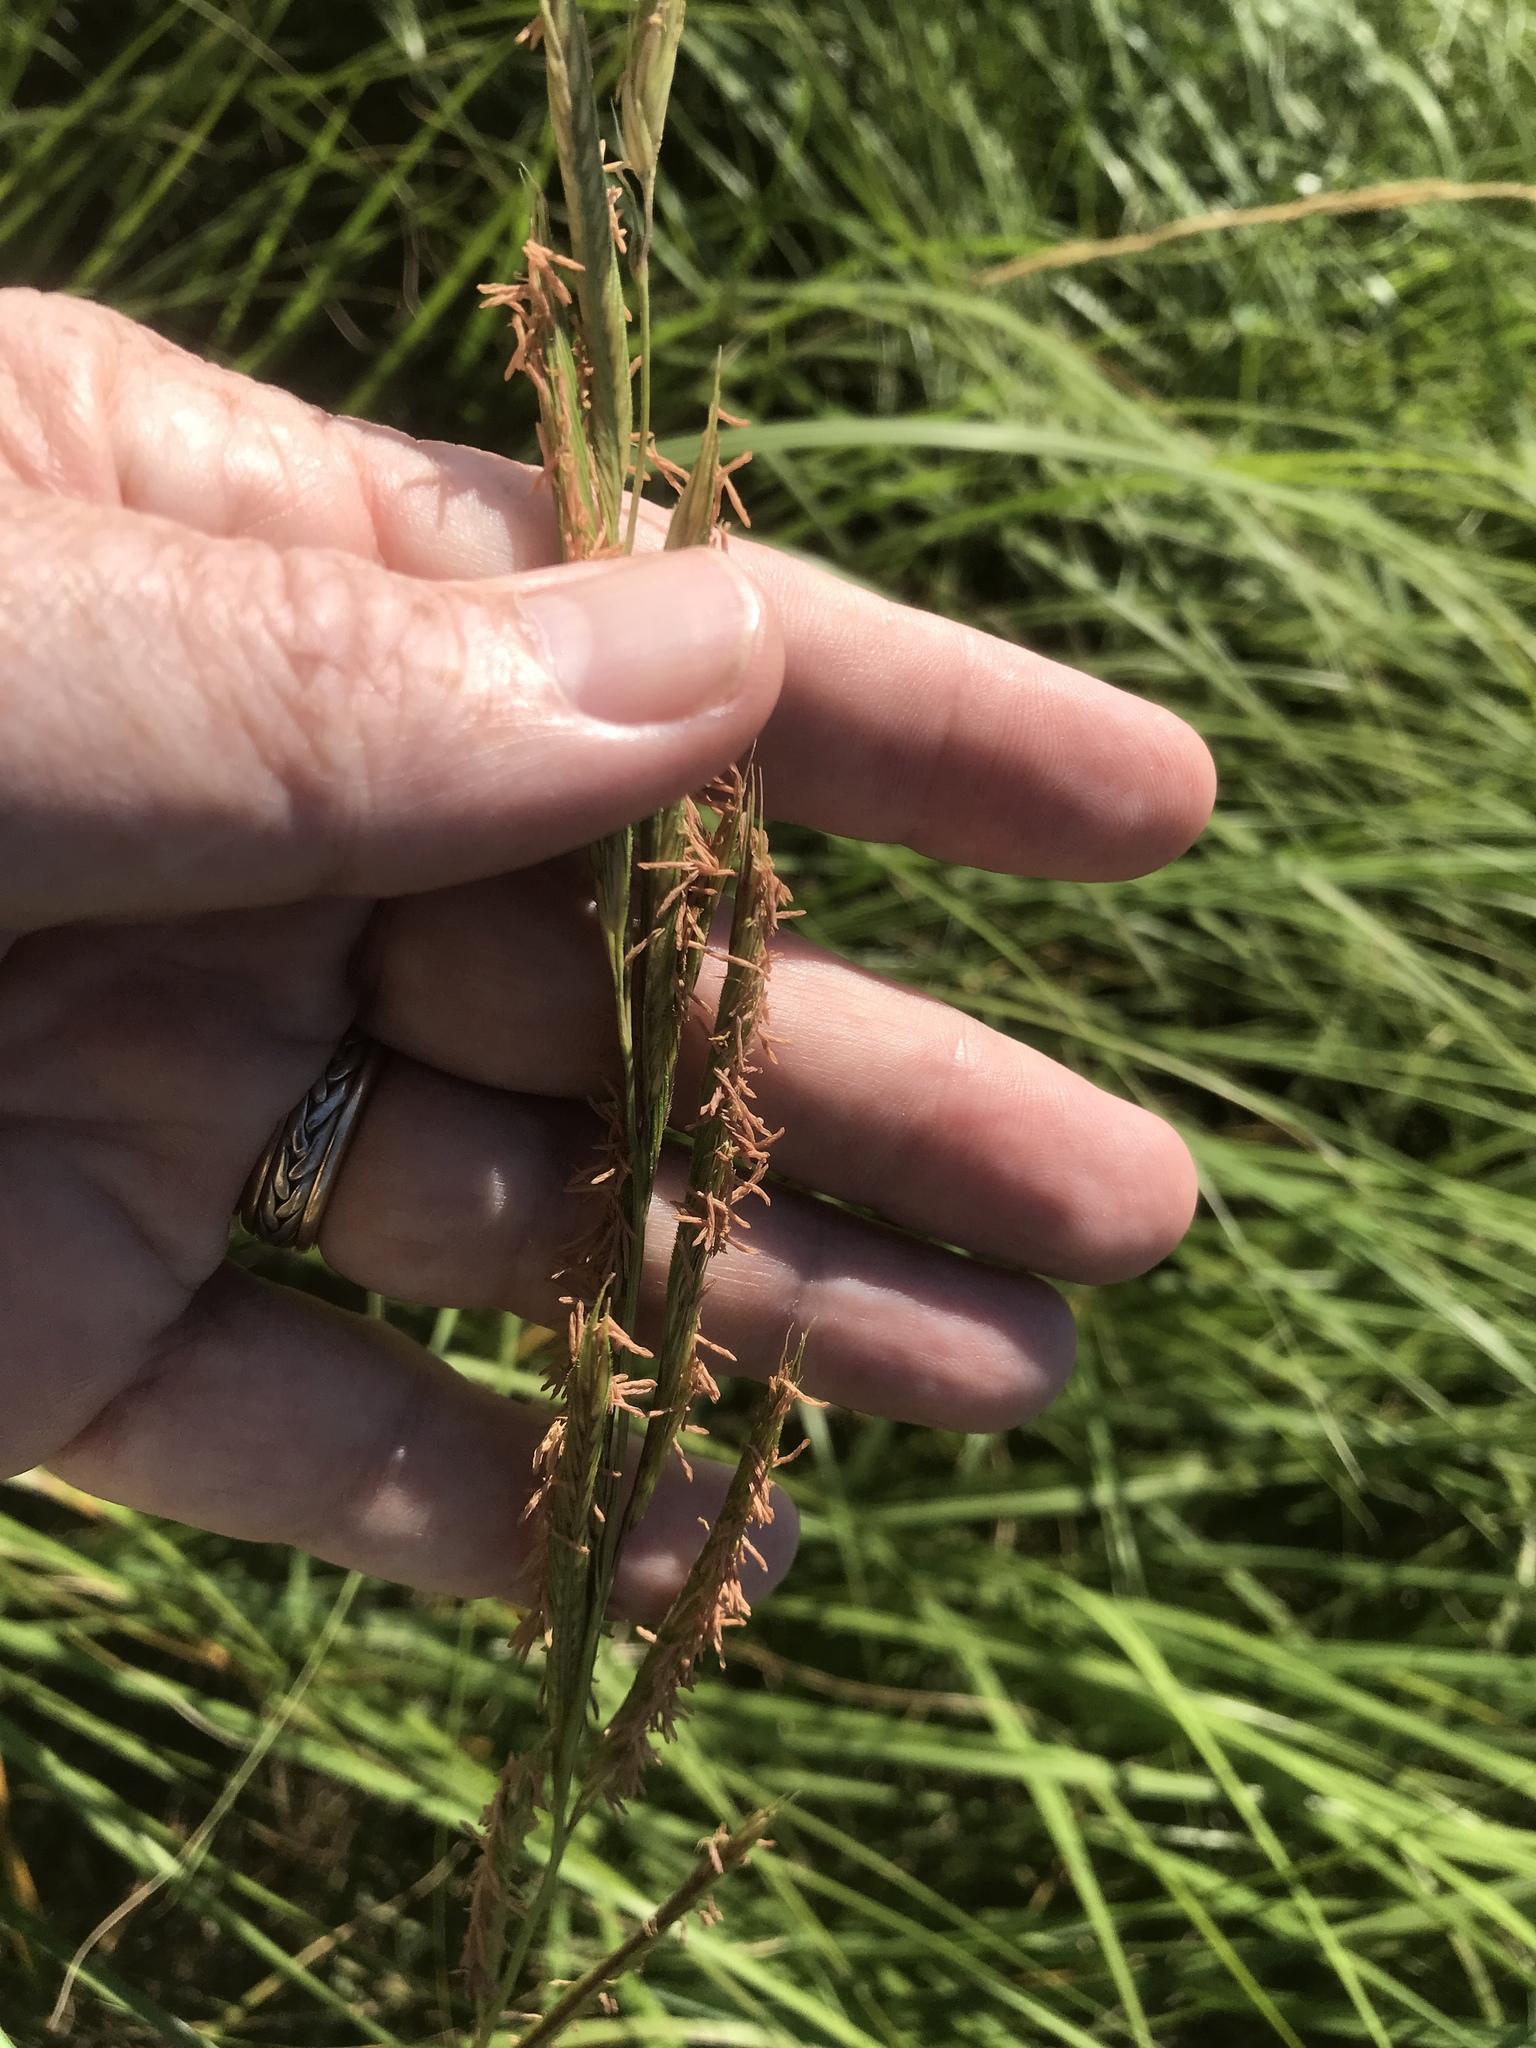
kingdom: Plantae
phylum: Tracheophyta
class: Liliopsida
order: Poales
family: Poaceae
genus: Sporobolus
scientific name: Sporobolus michauxianus
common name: Freshwater cordgrass
